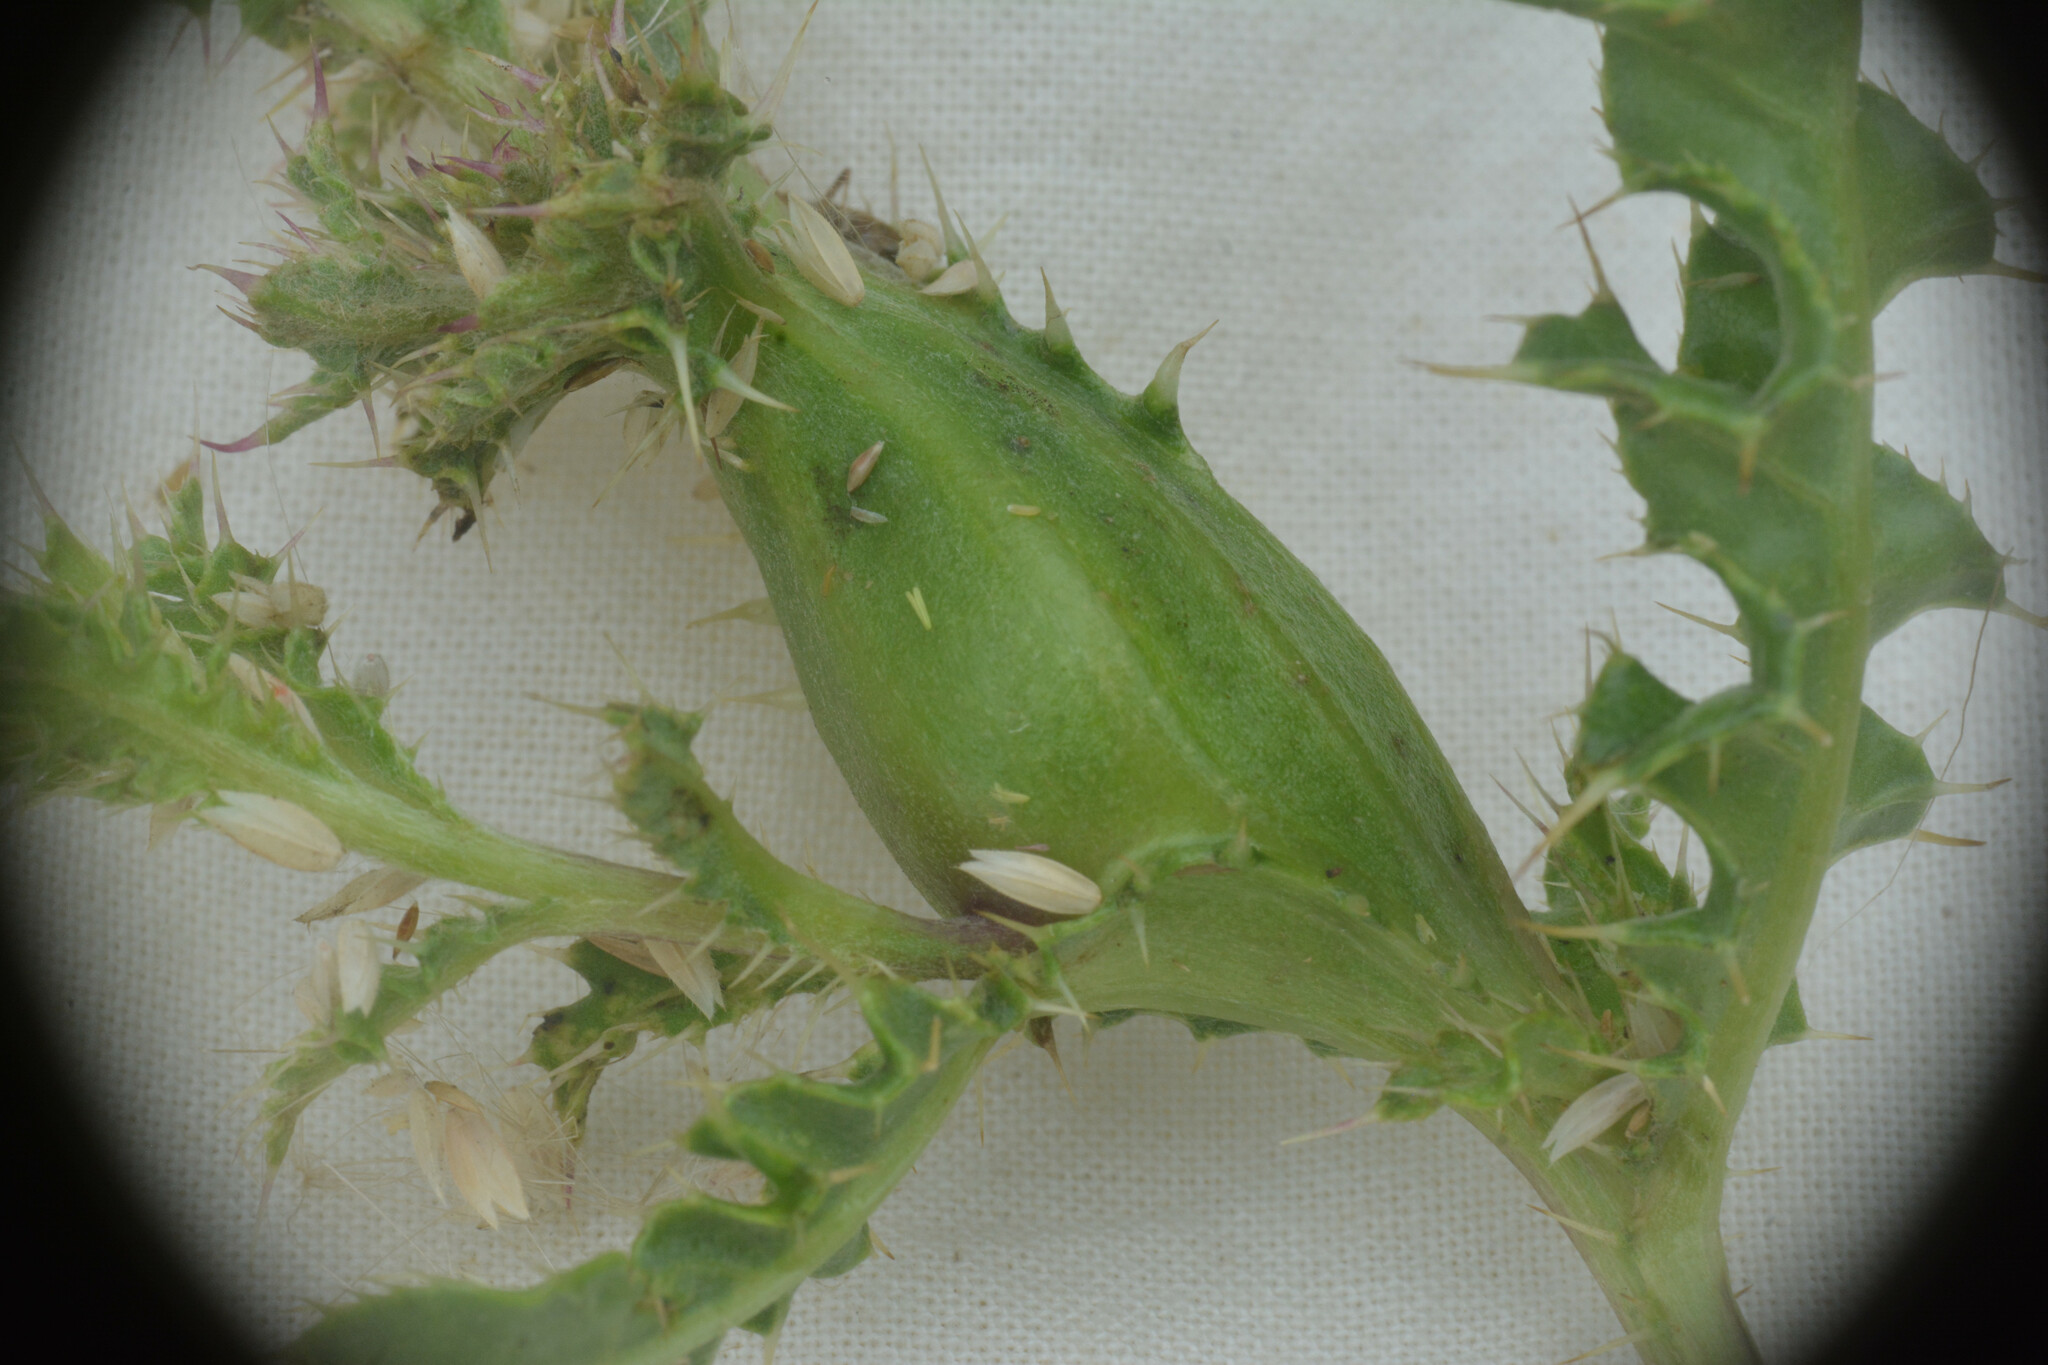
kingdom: Animalia
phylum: Arthropoda
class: Insecta
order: Diptera
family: Tephritidae
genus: Urophora
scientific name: Urophora cardui
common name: Fruit fly
